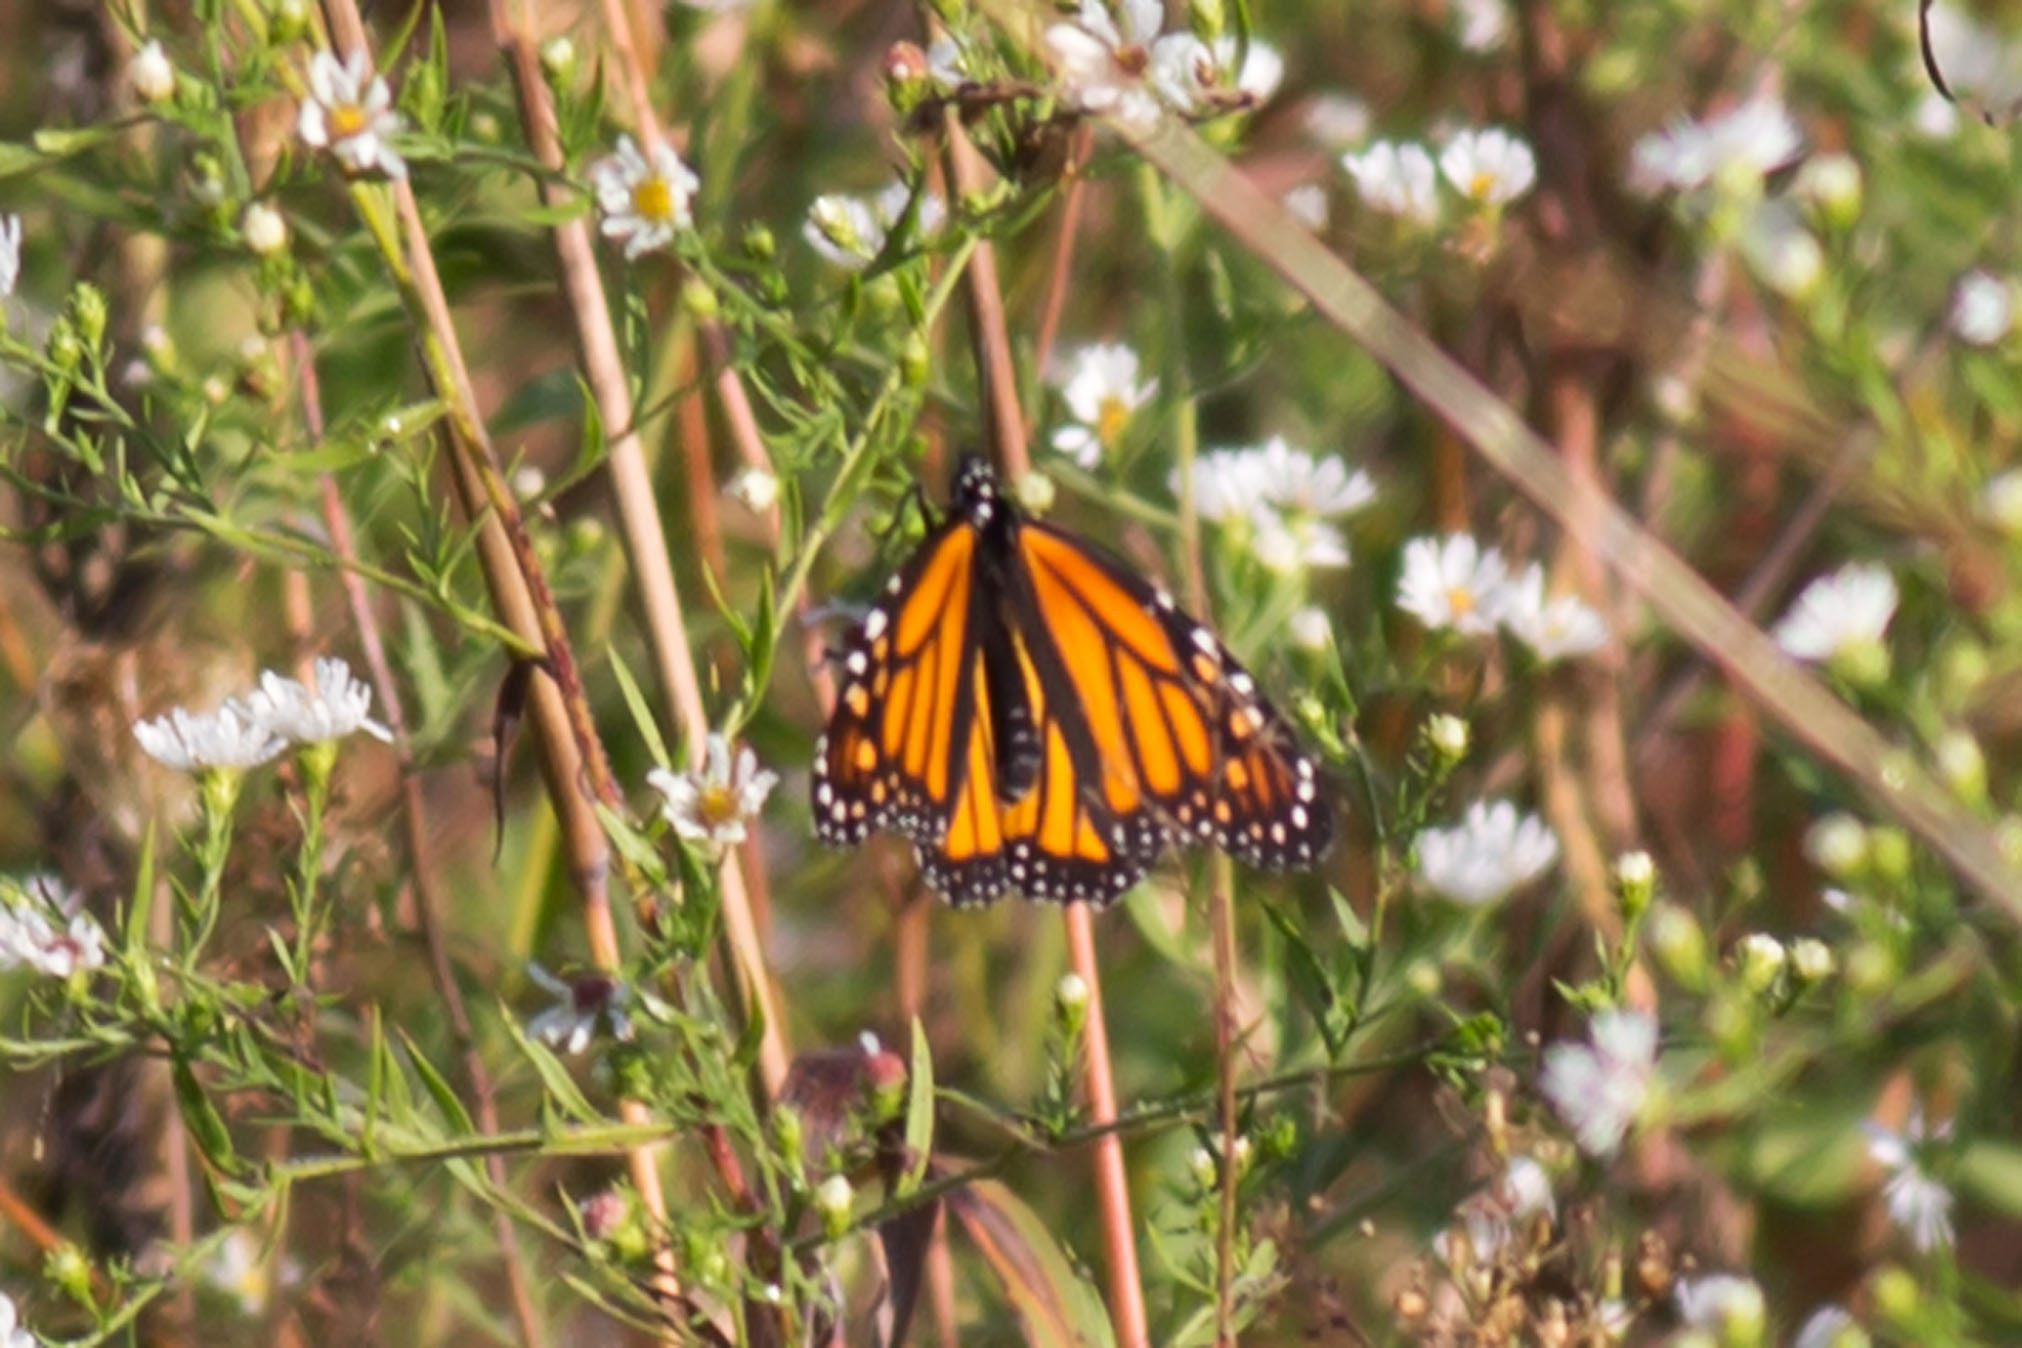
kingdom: Animalia
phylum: Arthropoda
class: Insecta
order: Lepidoptera
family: Nymphalidae
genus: Danaus
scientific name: Danaus plexippus
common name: Monarch
